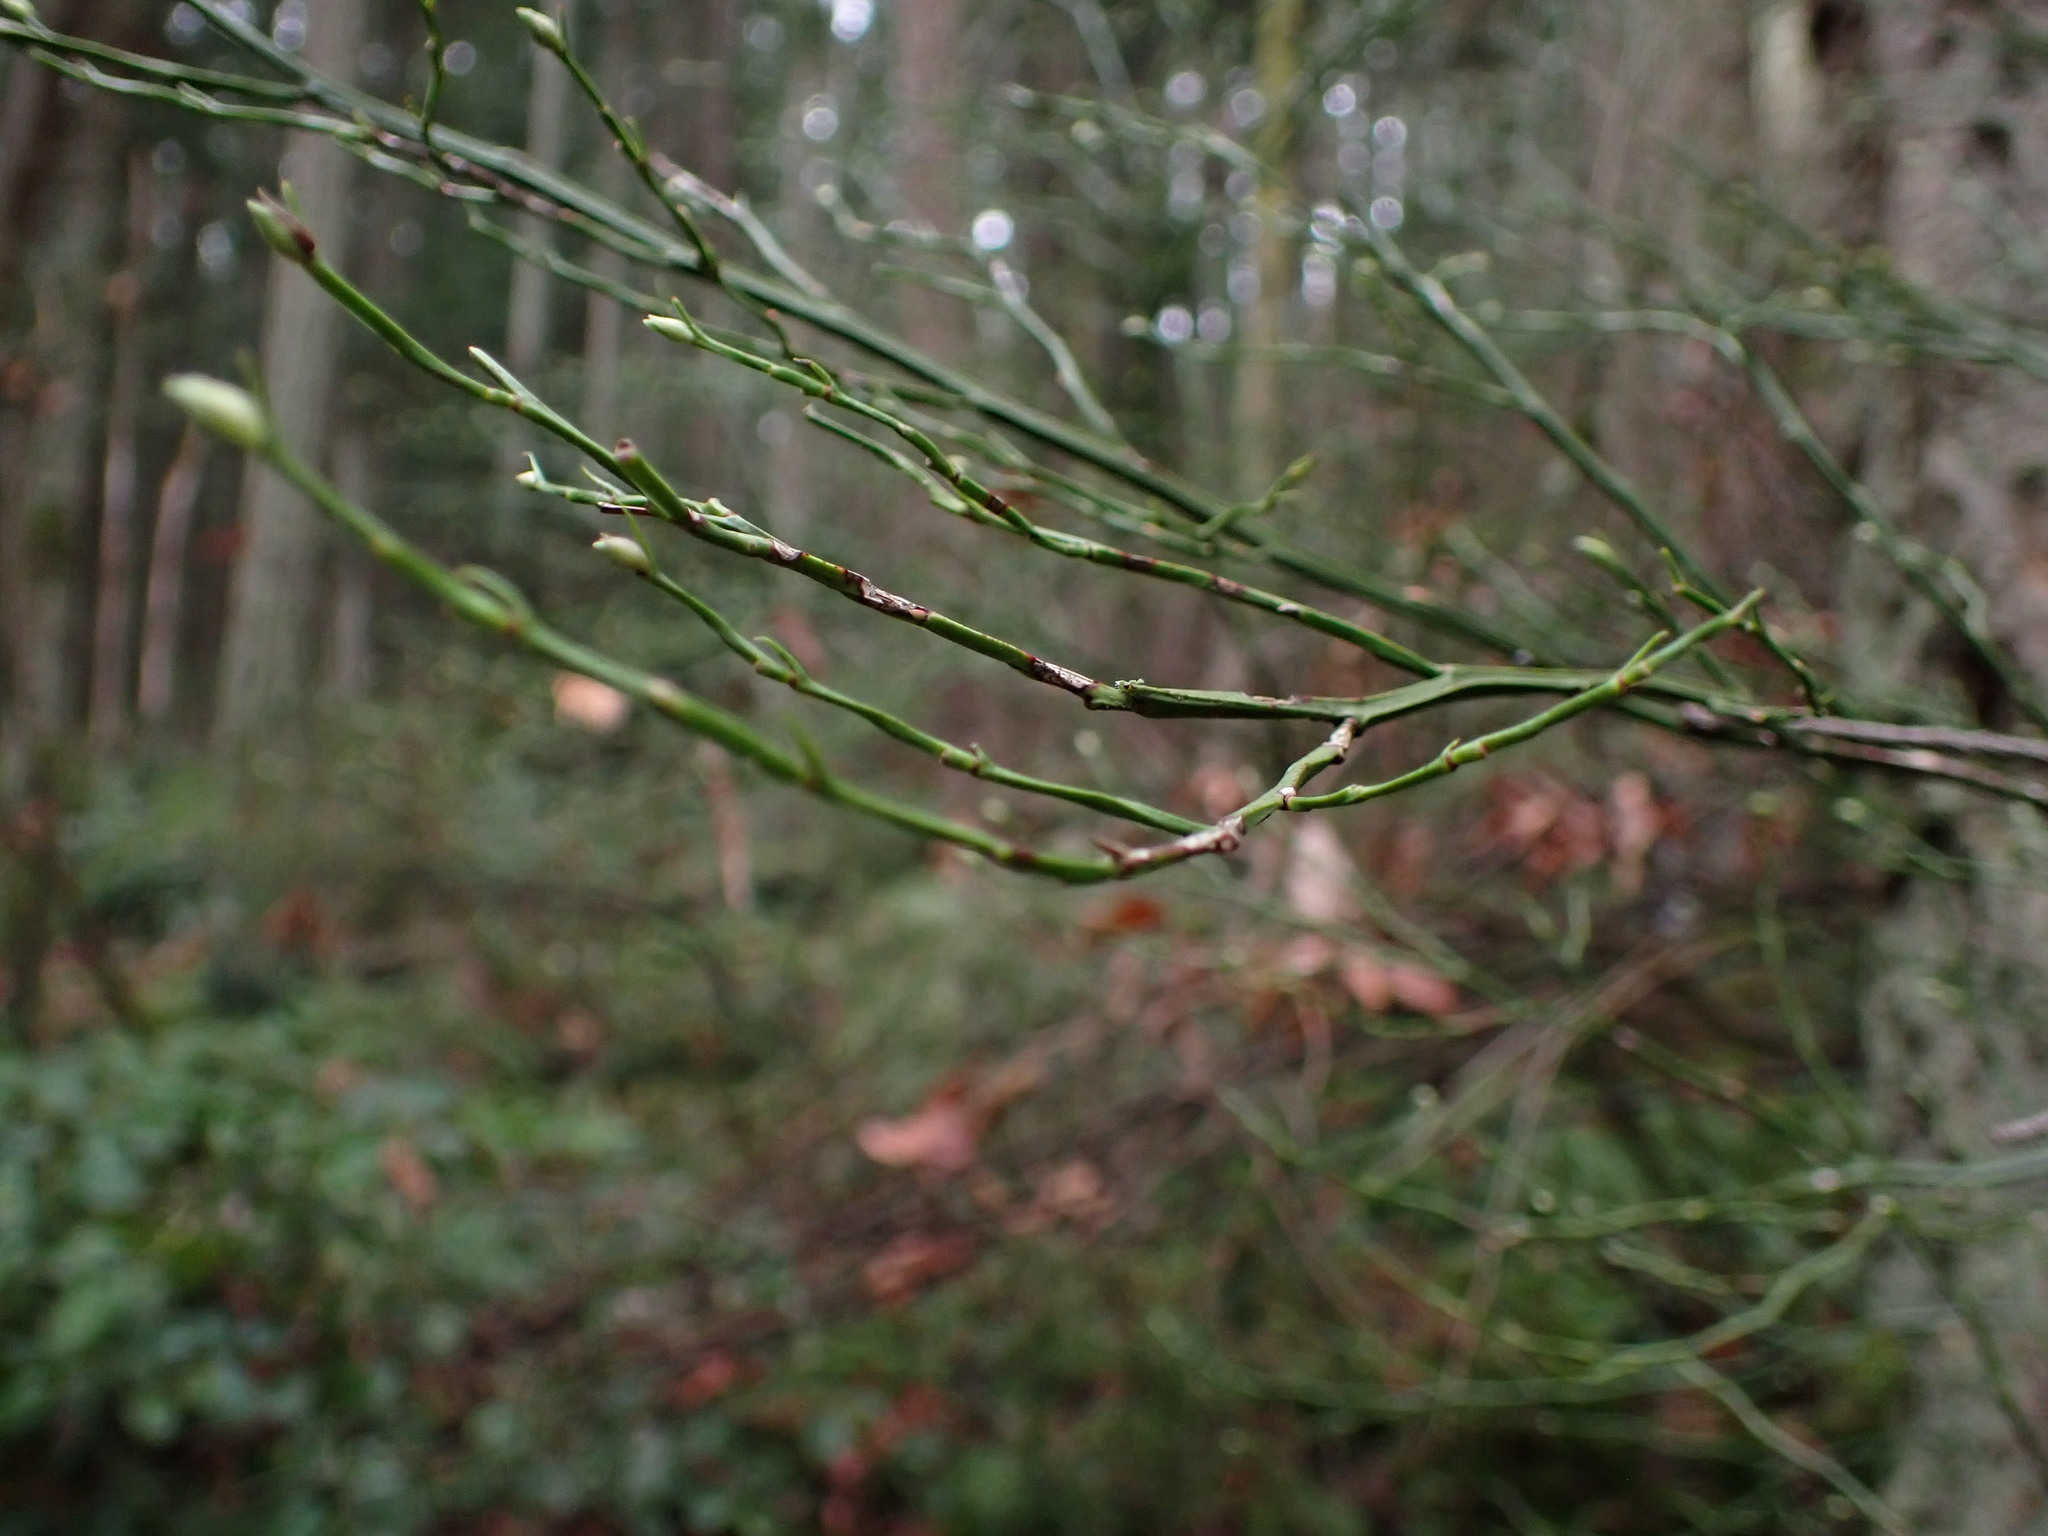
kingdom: Plantae
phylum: Tracheophyta
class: Magnoliopsida
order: Ericales
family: Ericaceae
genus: Vaccinium
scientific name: Vaccinium parvifolium
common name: Red-huckleberry
